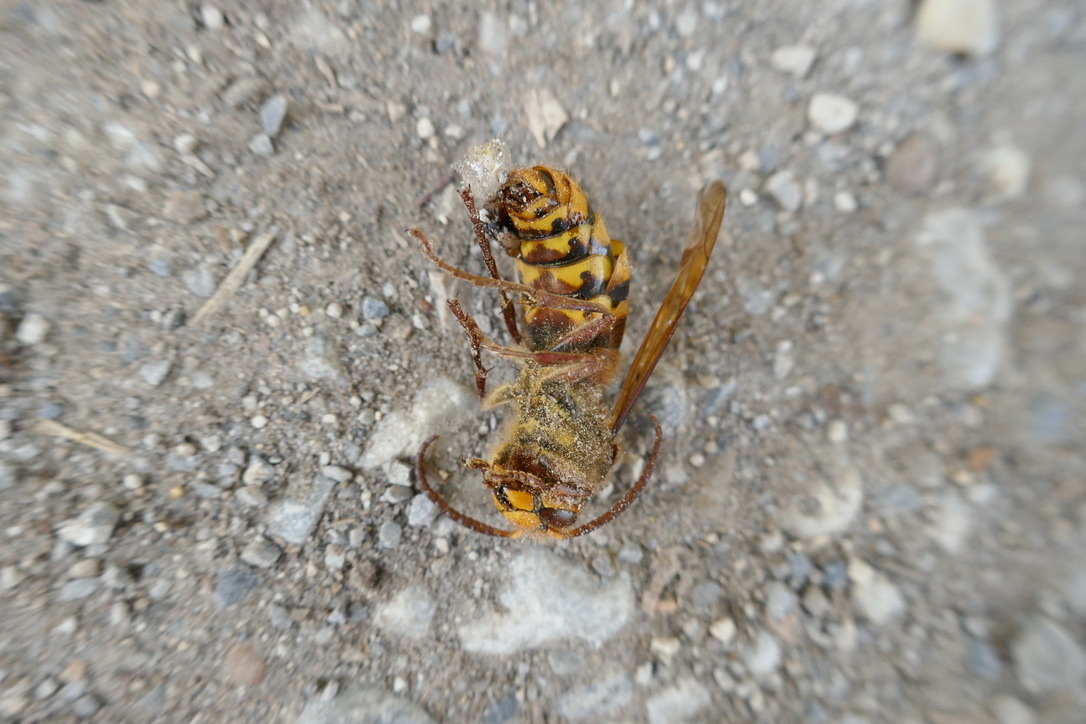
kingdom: Animalia
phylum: Arthropoda
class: Insecta
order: Hymenoptera
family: Vespidae
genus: Vespa
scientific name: Vespa crabro
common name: Hornet
